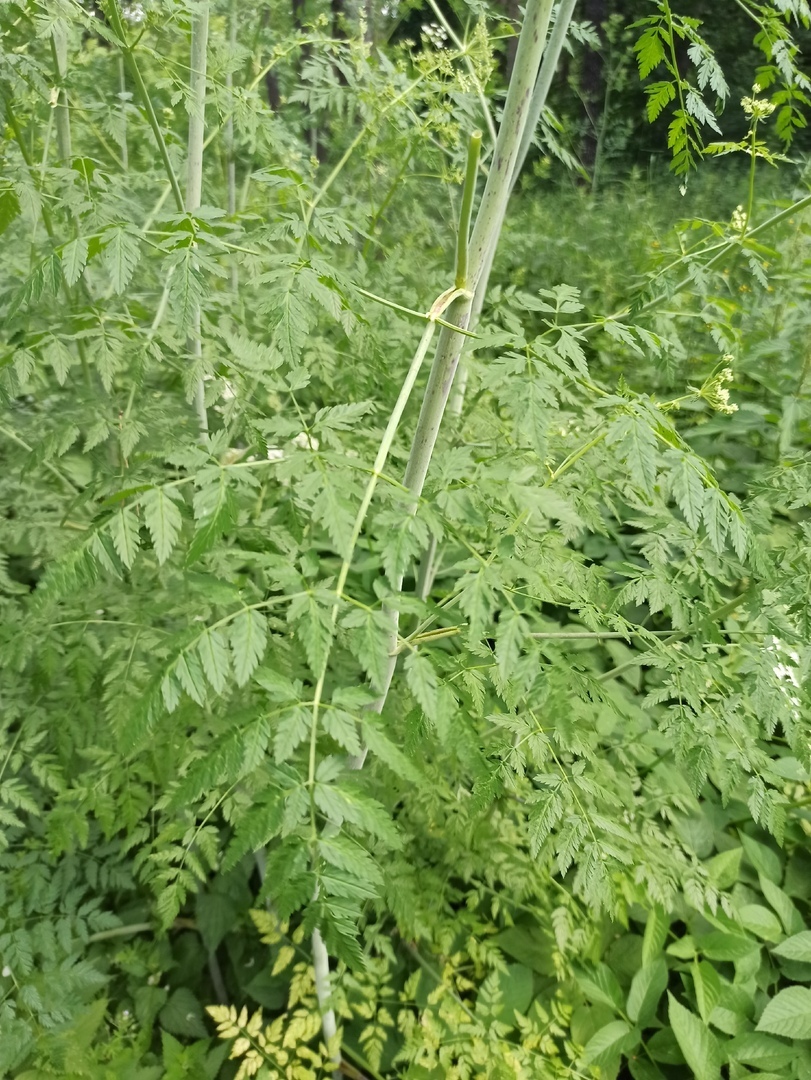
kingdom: Plantae
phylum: Tracheophyta
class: Magnoliopsida
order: Apiales
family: Apiaceae
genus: Conium
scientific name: Conium maculatum
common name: Hemlock
